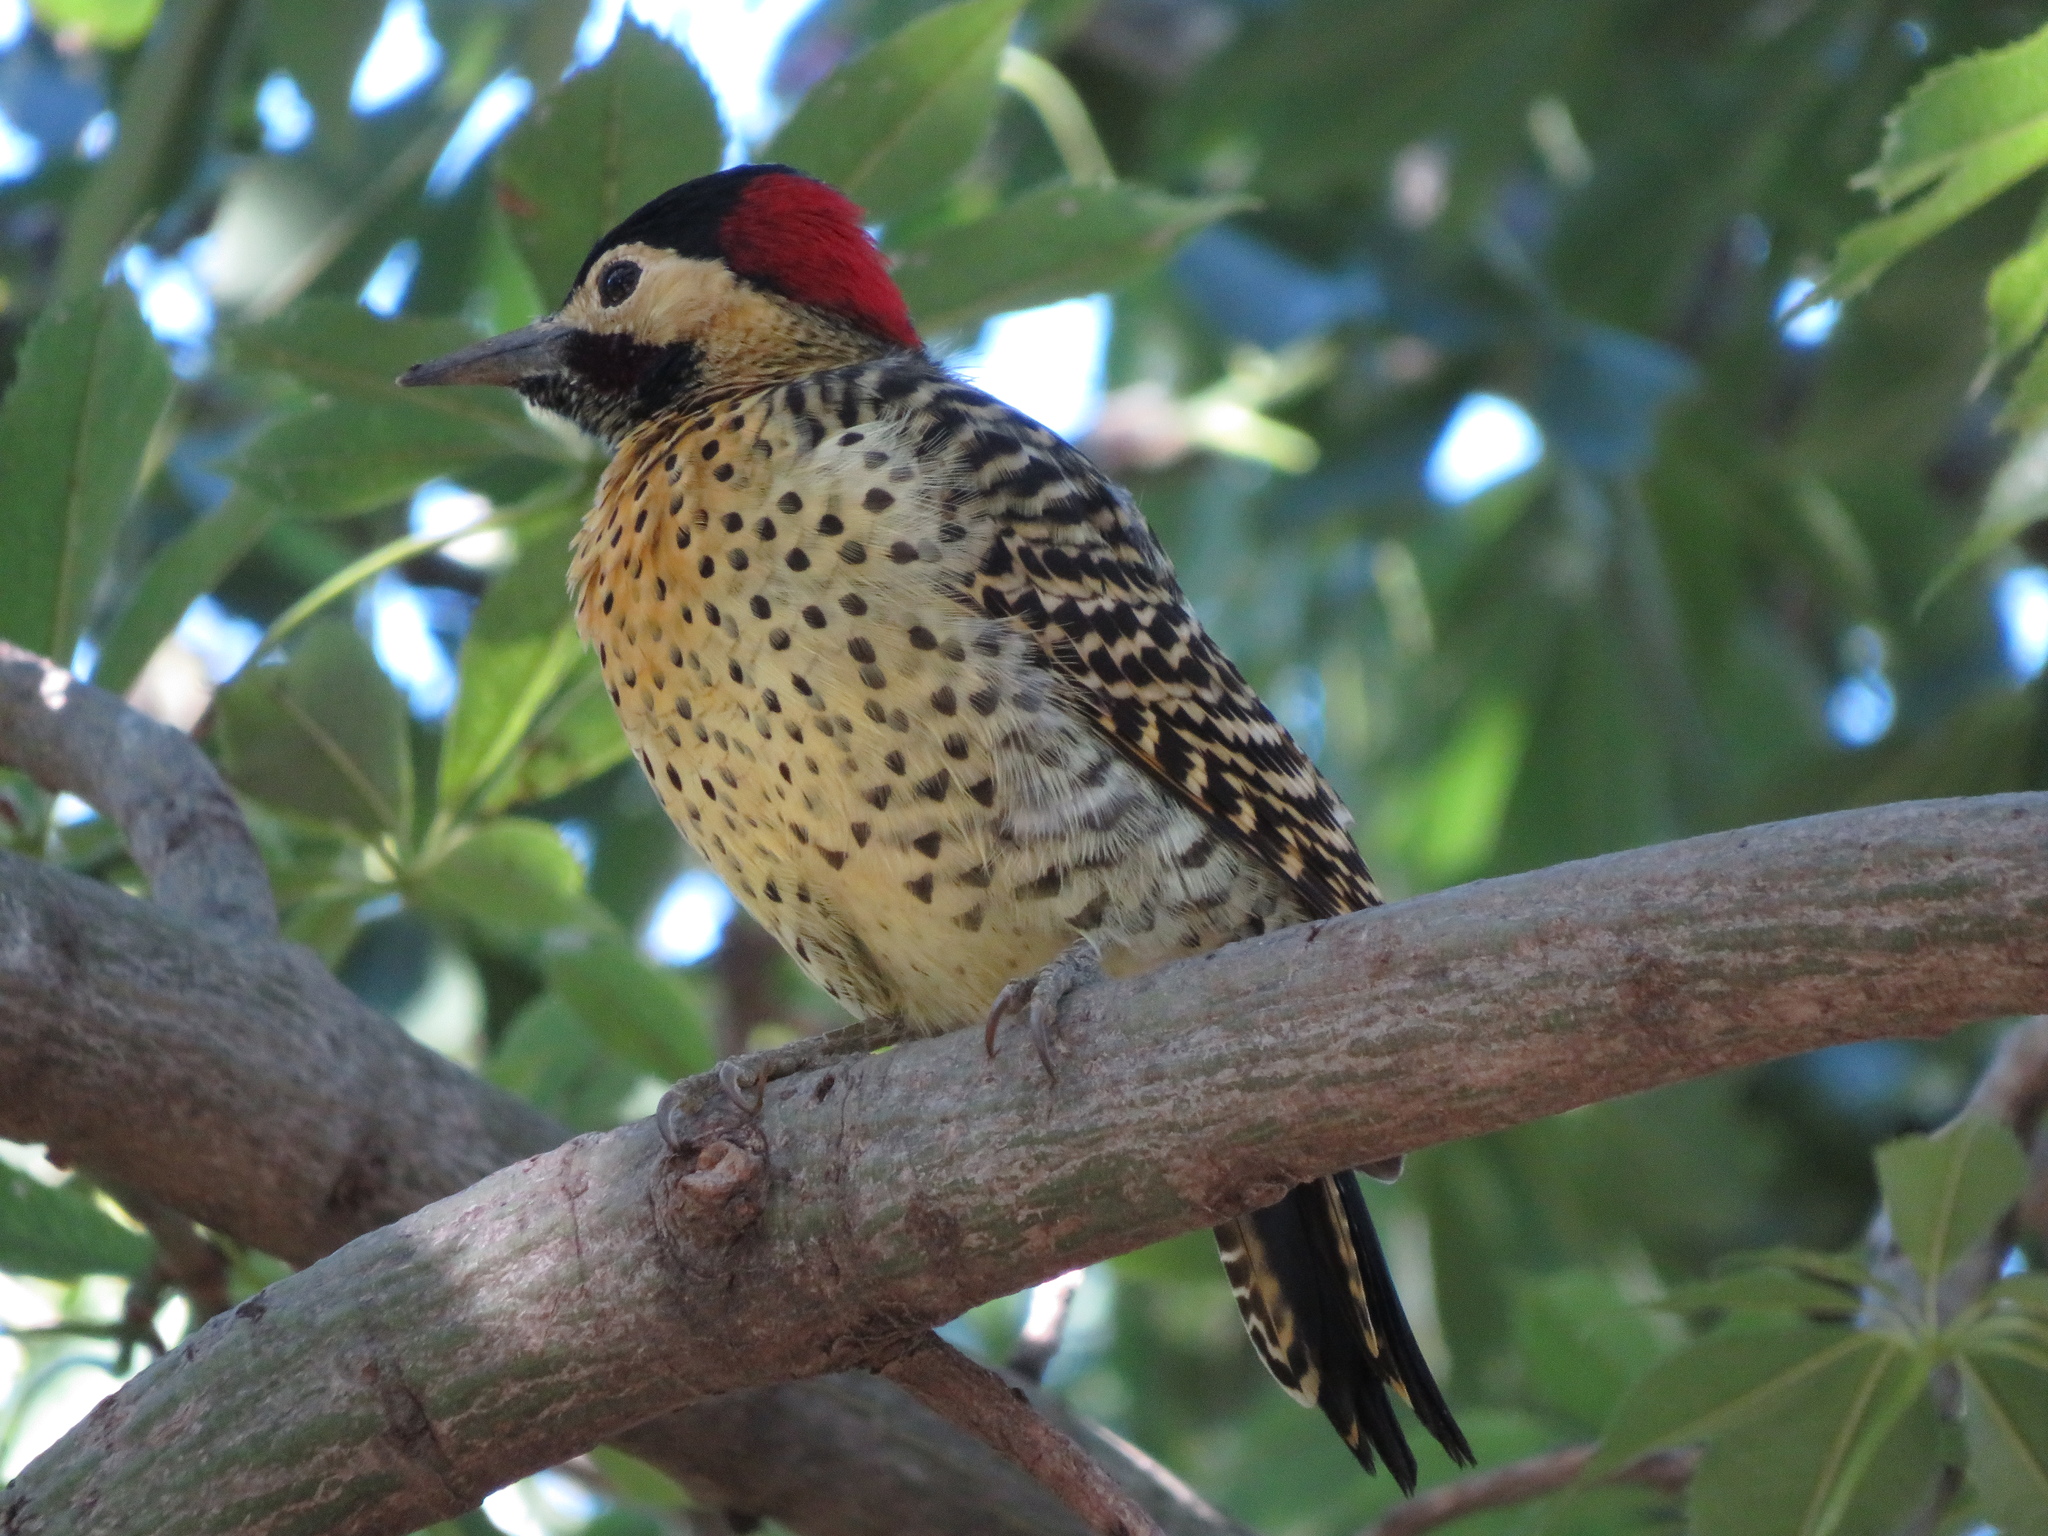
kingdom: Animalia
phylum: Chordata
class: Aves
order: Piciformes
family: Picidae
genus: Colaptes
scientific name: Colaptes melanochloros
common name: Green-barred woodpecker
